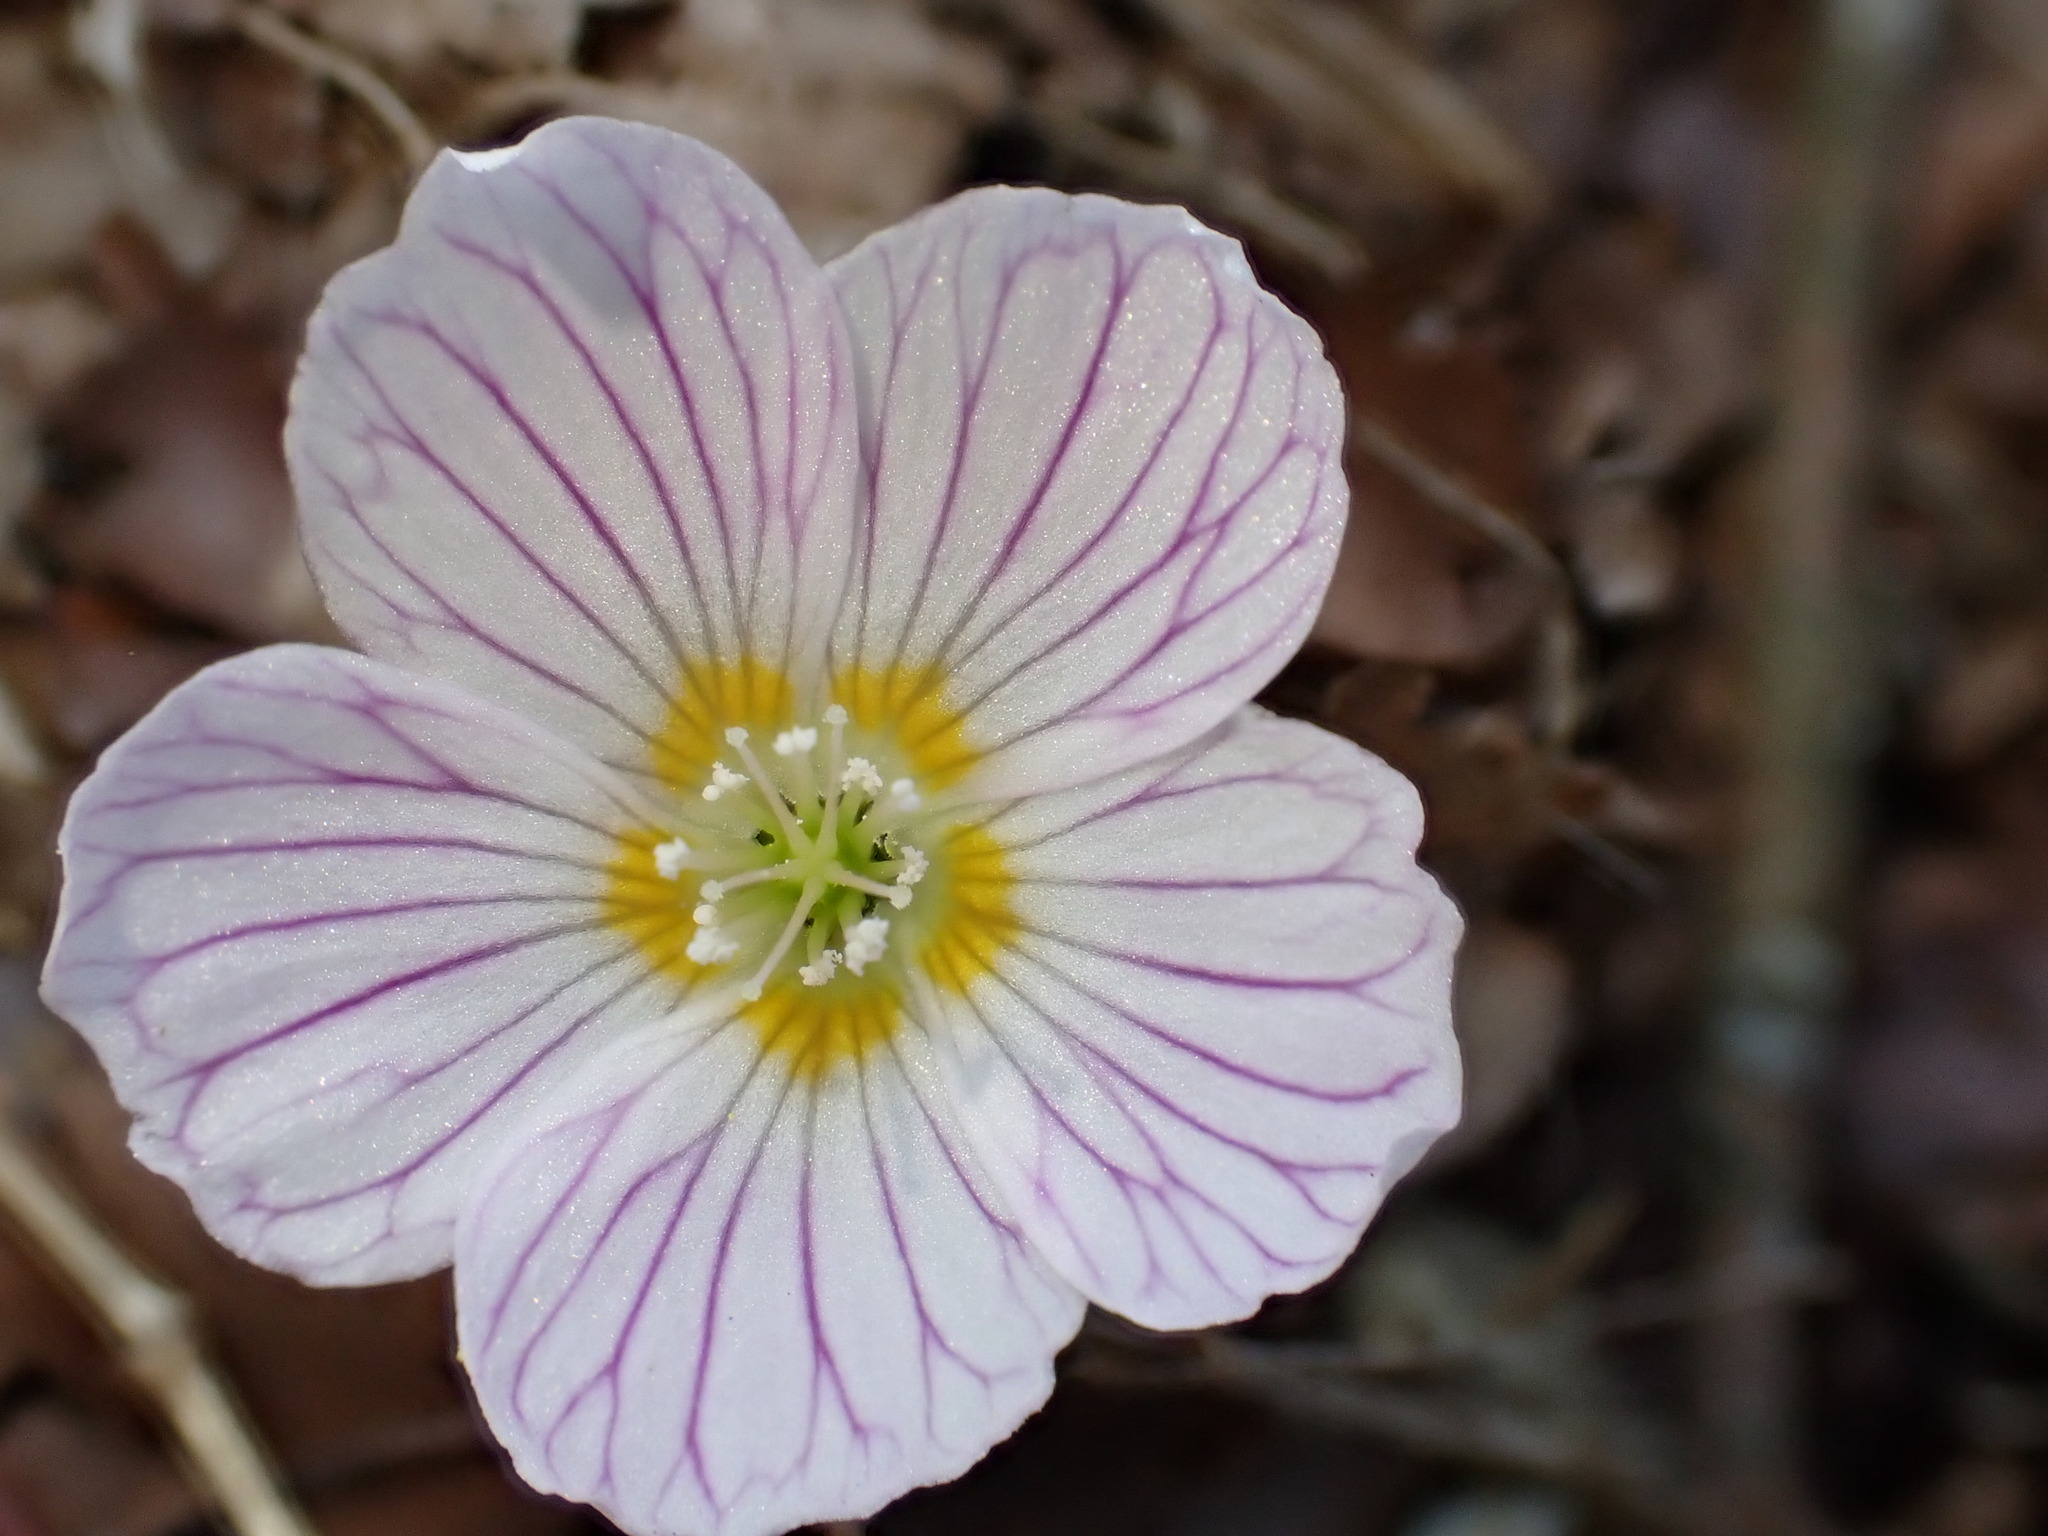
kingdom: Plantae
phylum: Tracheophyta
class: Magnoliopsida
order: Oxalidales
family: Oxalidaceae
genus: Oxalis
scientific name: Oxalis acetosella
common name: Wood-sorrel
